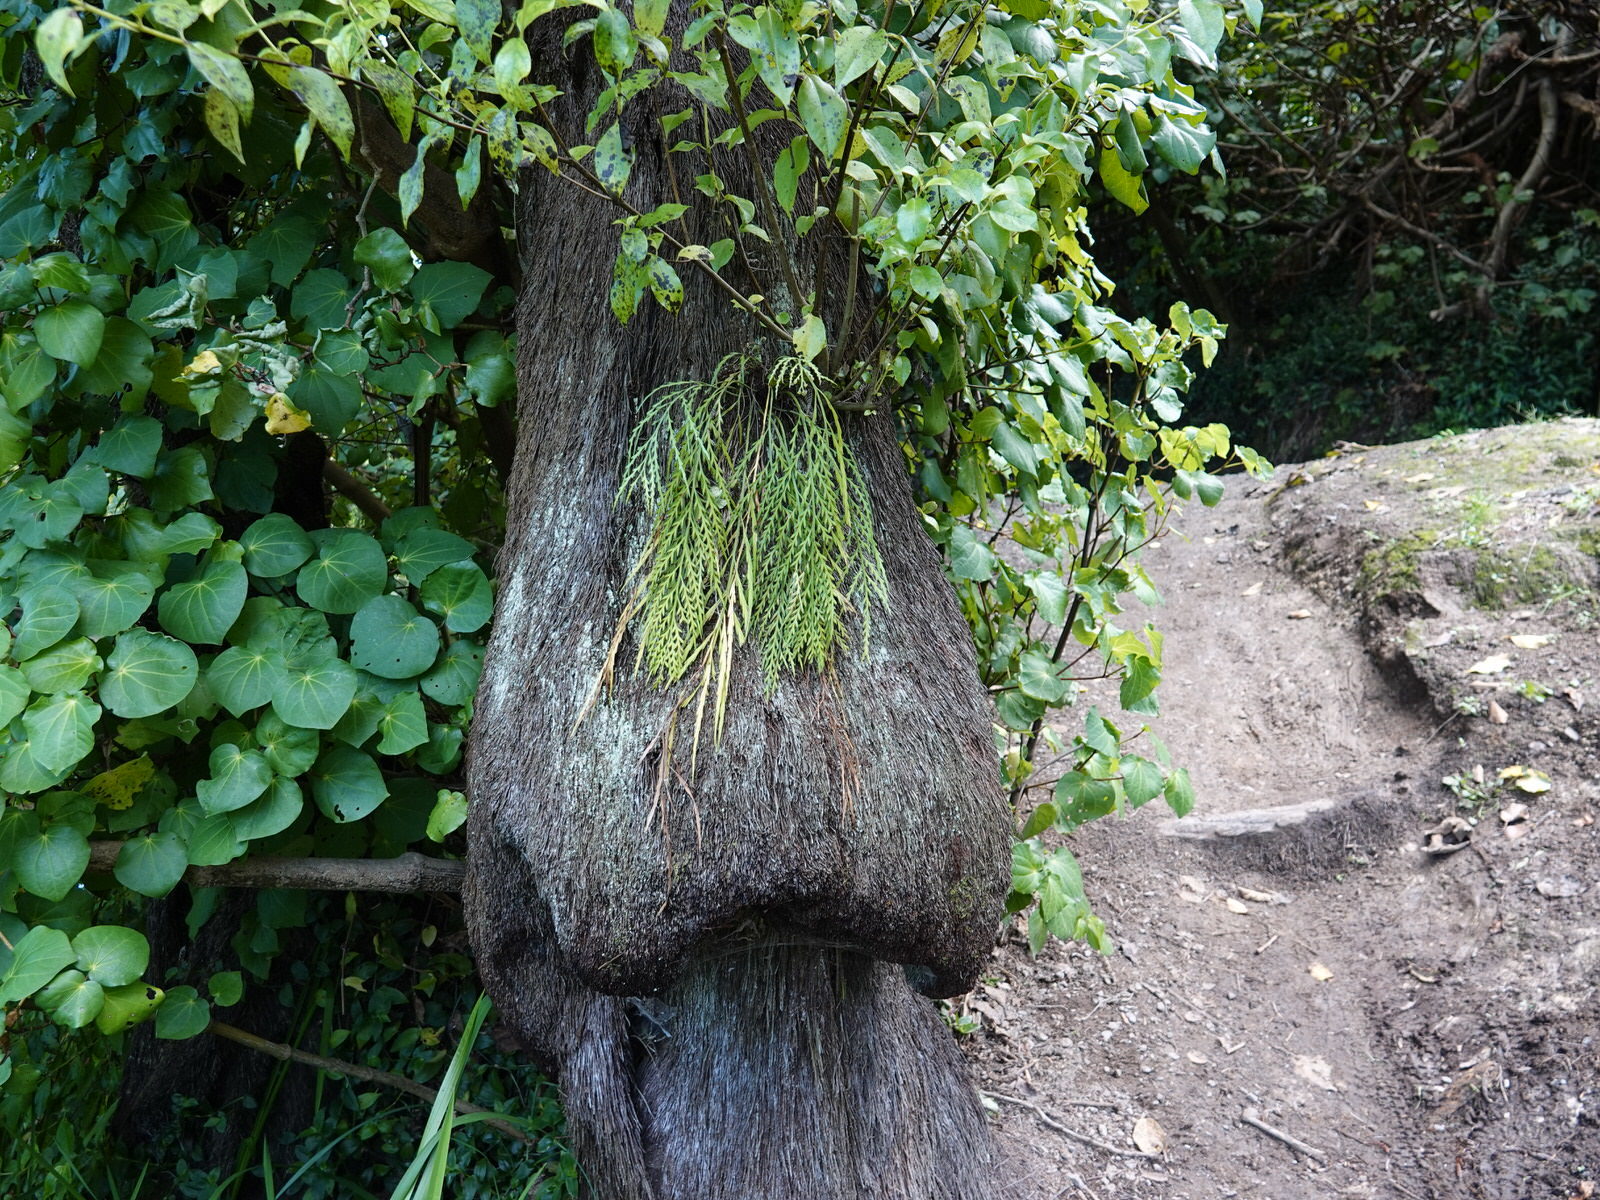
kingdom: Plantae
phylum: Tracheophyta
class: Polypodiopsida
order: Polypodiales
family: Aspleniaceae
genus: Asplenium
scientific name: Asplenium flaccidum
